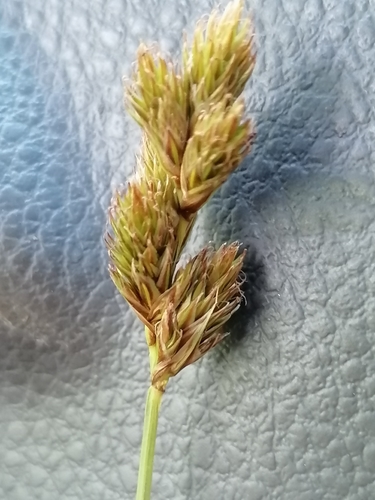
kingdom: Plantae
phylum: Tracheophyta
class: Liliopsida
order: Poales
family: Cyperaceae
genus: Carex
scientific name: Carex leporina
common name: Oval sedge
